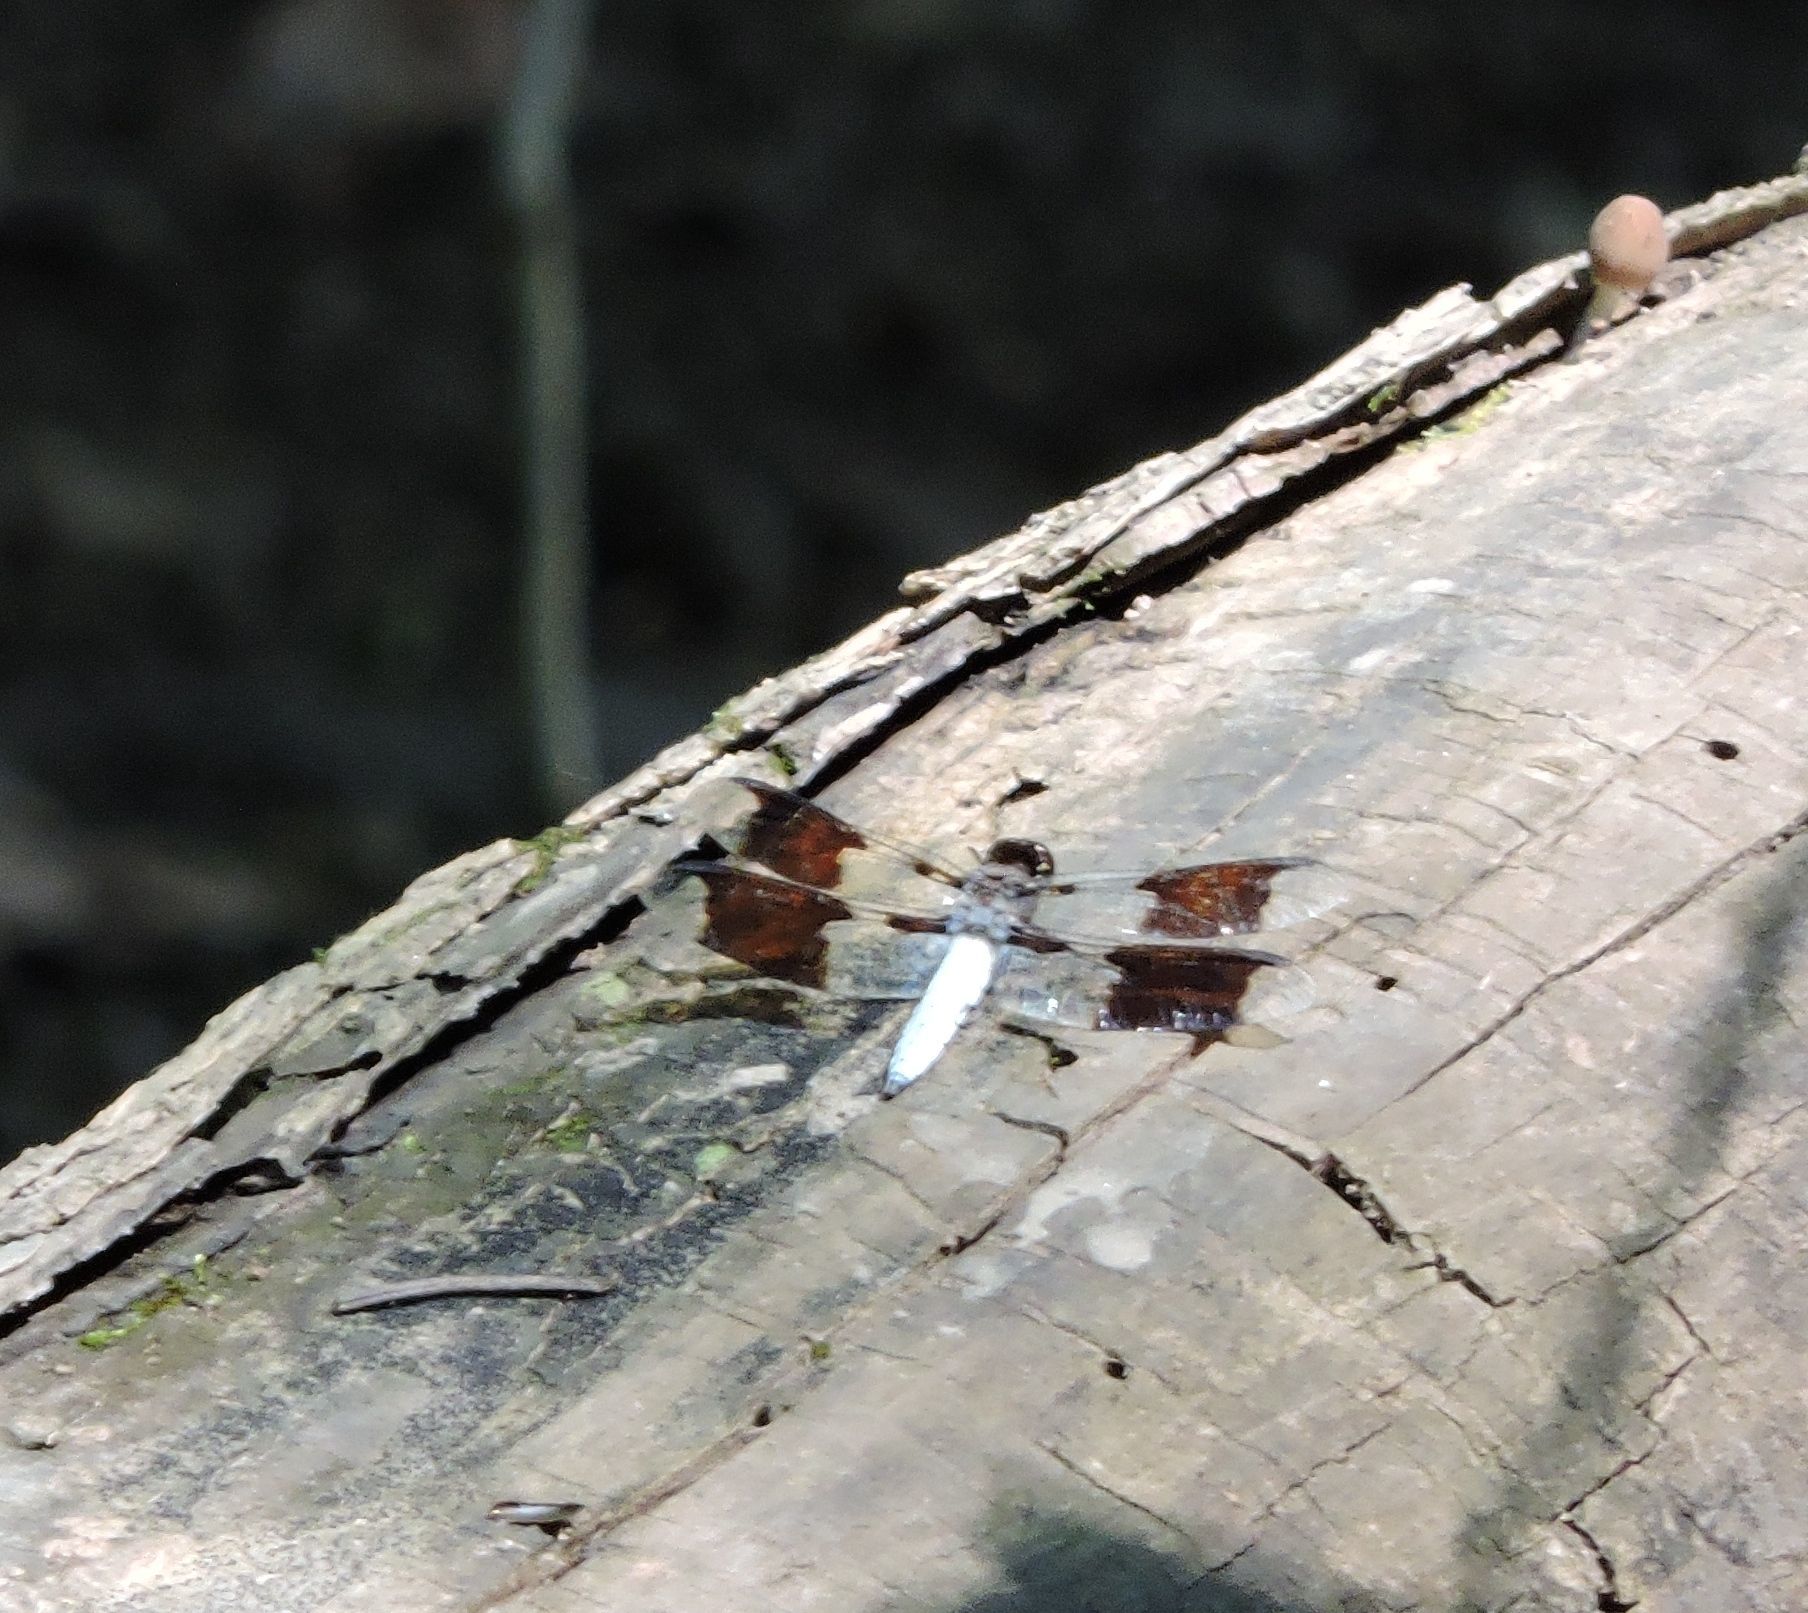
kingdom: Animalia
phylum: Arthropoda
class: Insecta
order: Odonata
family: Libellulidae
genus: Plathemis
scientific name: Plathemis lydia
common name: Common whitetail
